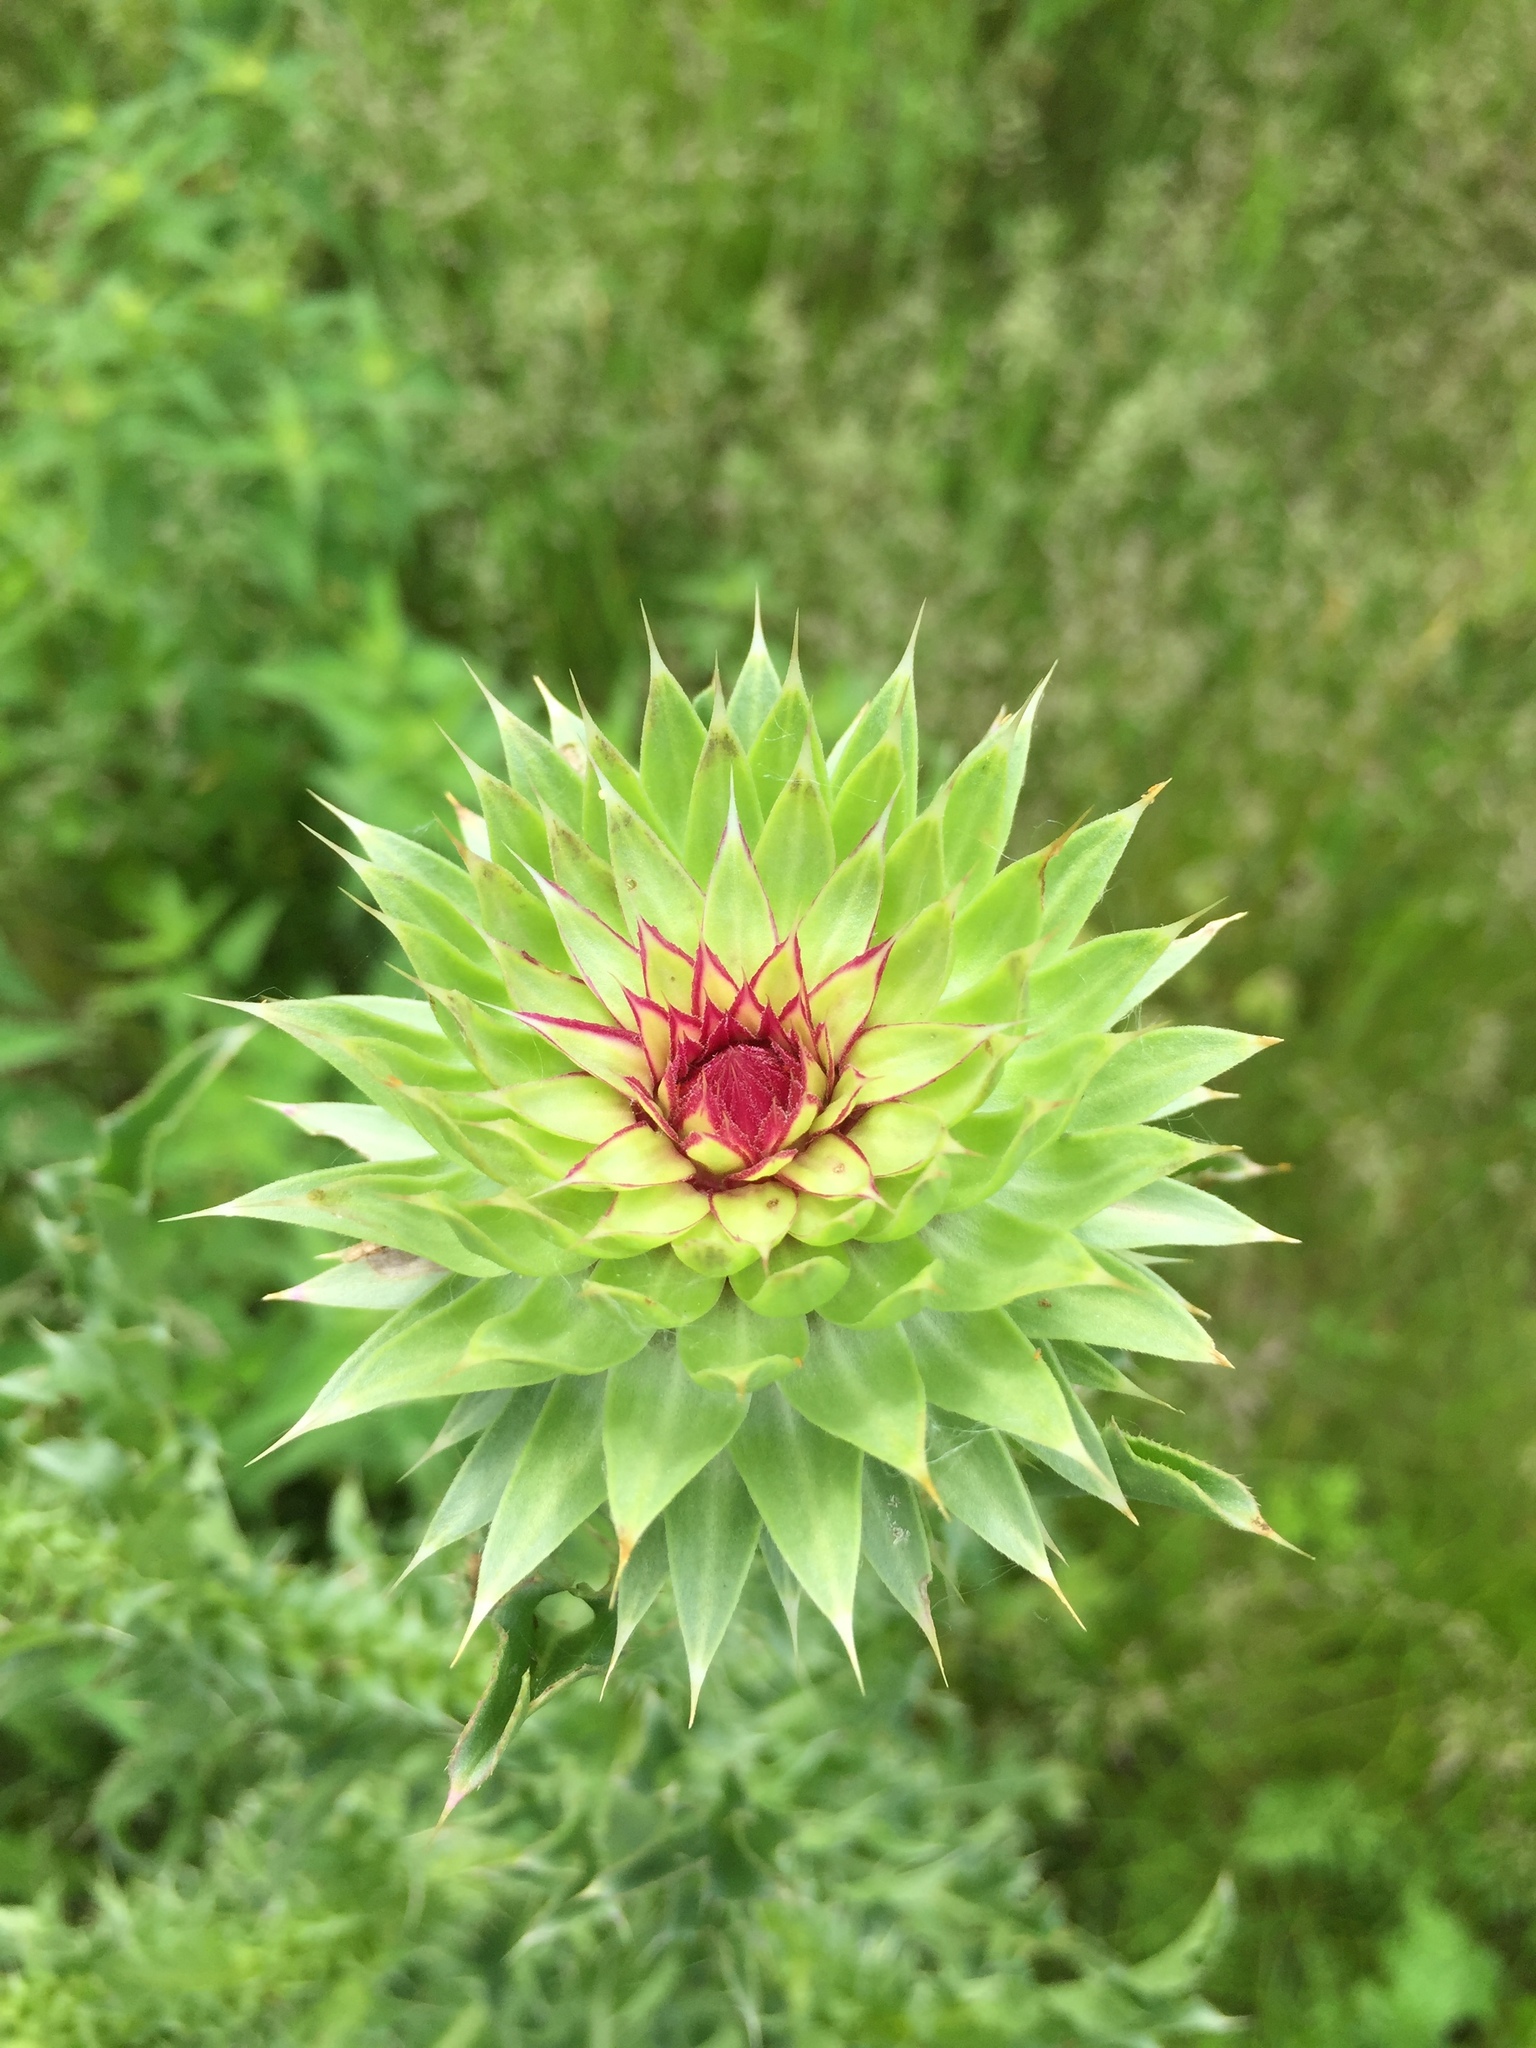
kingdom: Plantae
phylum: Tracheophyta
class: Magnoliopsida
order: Asterales
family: Asteraceae
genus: Carduus
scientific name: Carduus nutans
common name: Musk thistle
